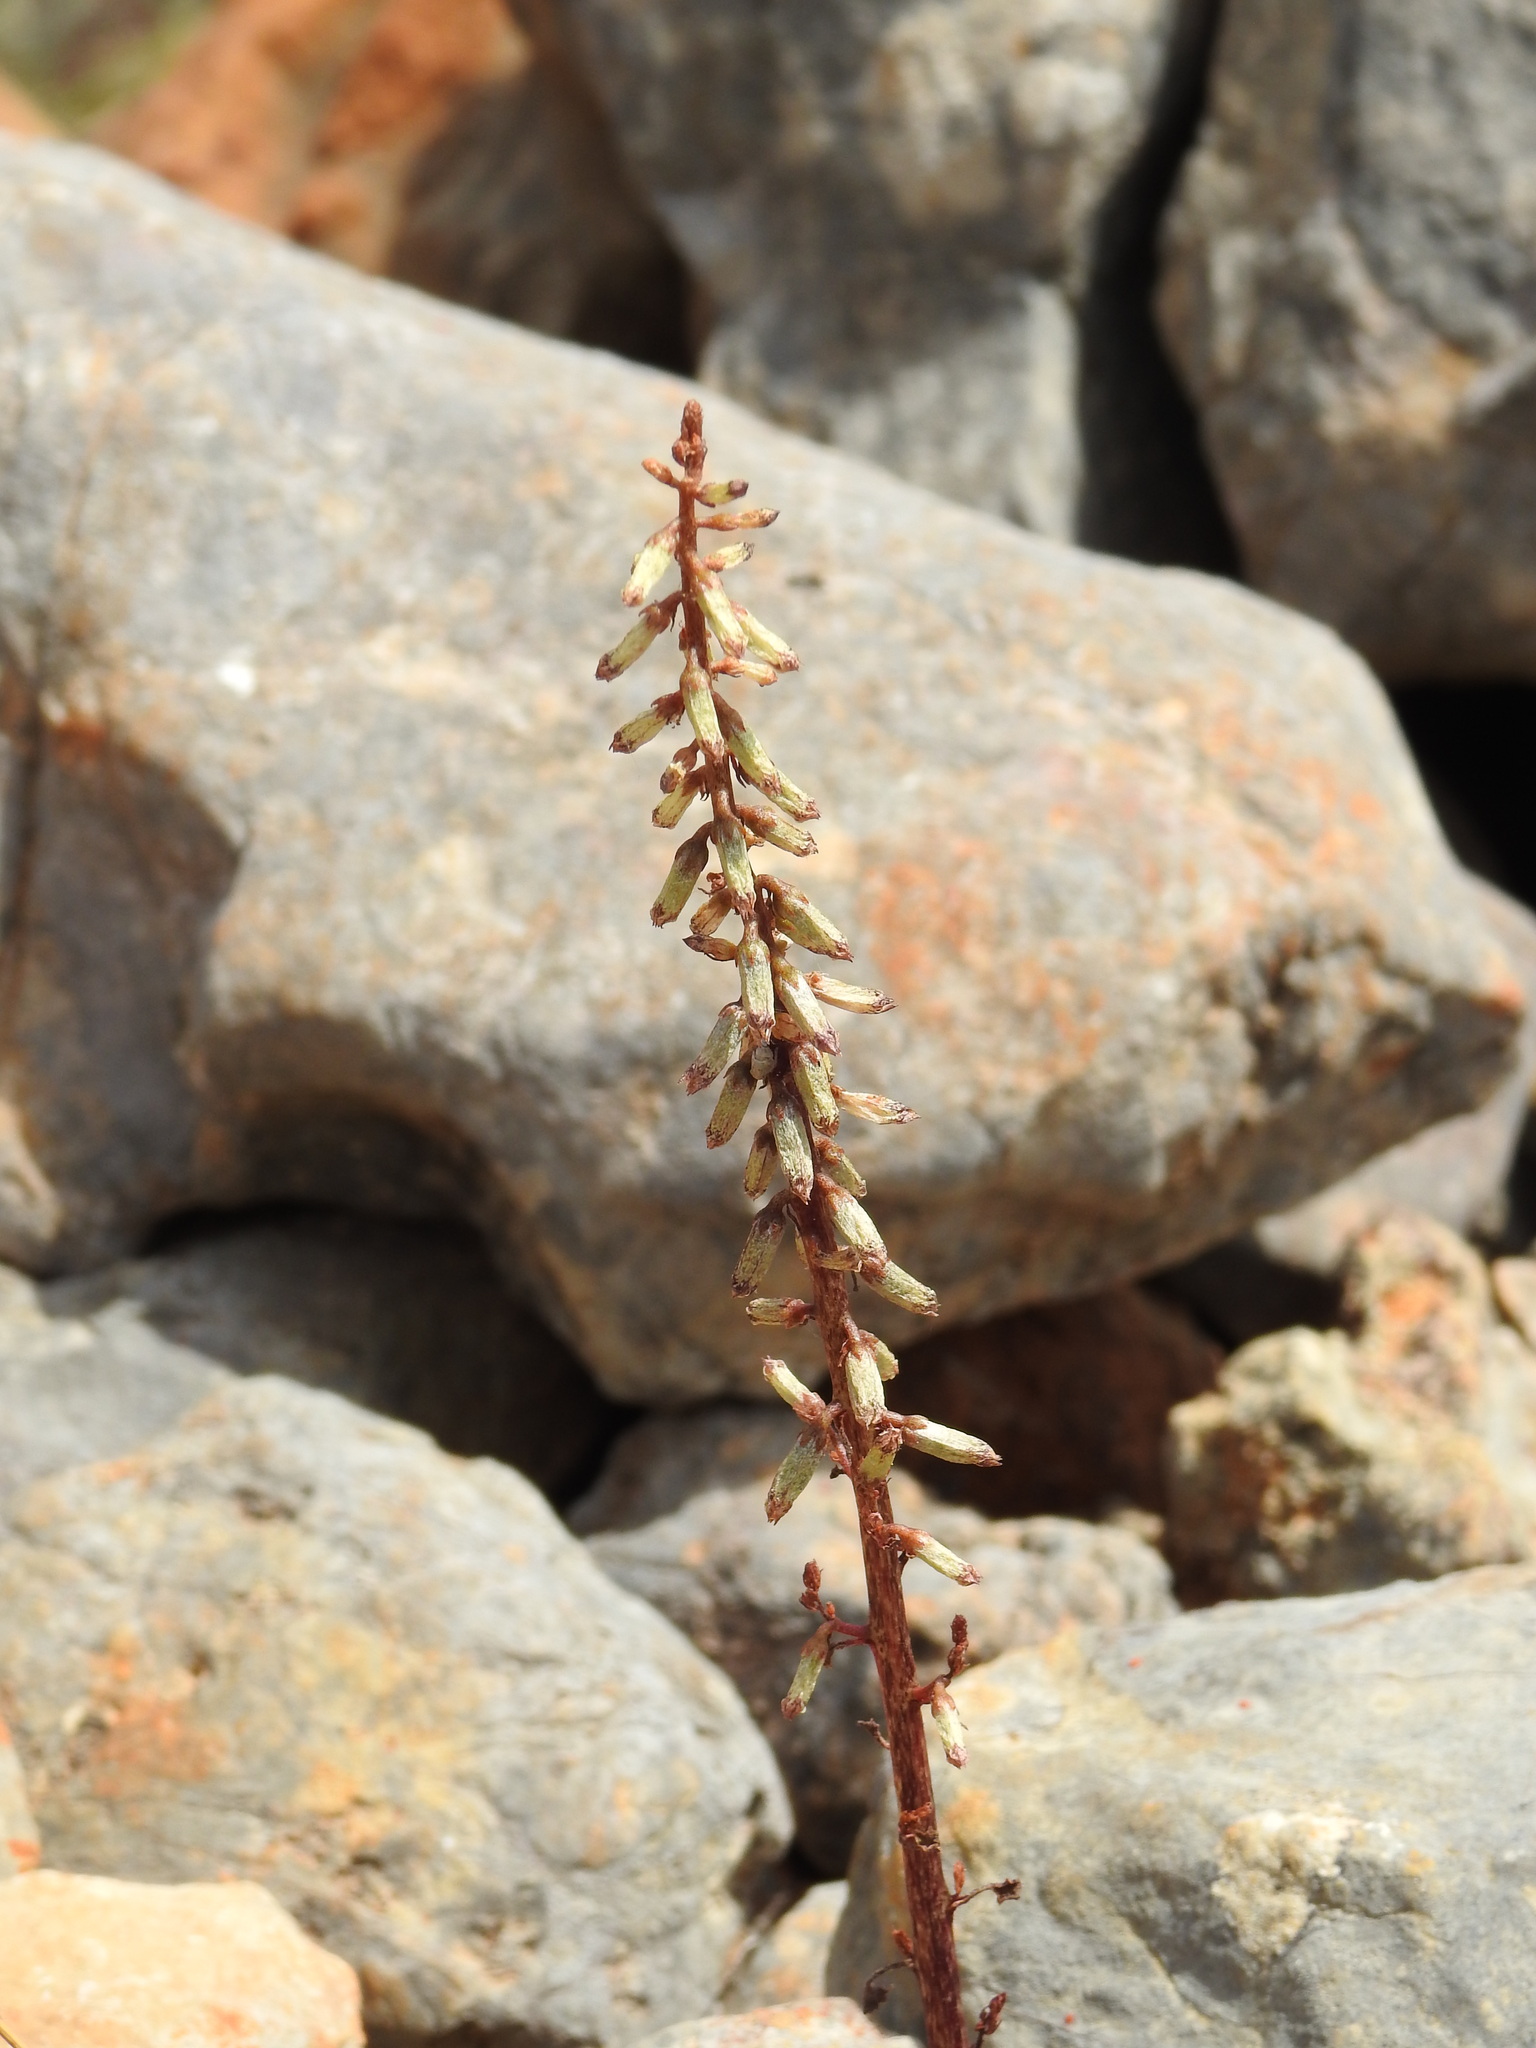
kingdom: Plantae
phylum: Tracheophyta
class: Magnoliopsida
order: Saxifragales
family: Crassulaceae
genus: Umbilicus
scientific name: Umbilicus rupestris
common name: Navelwort
